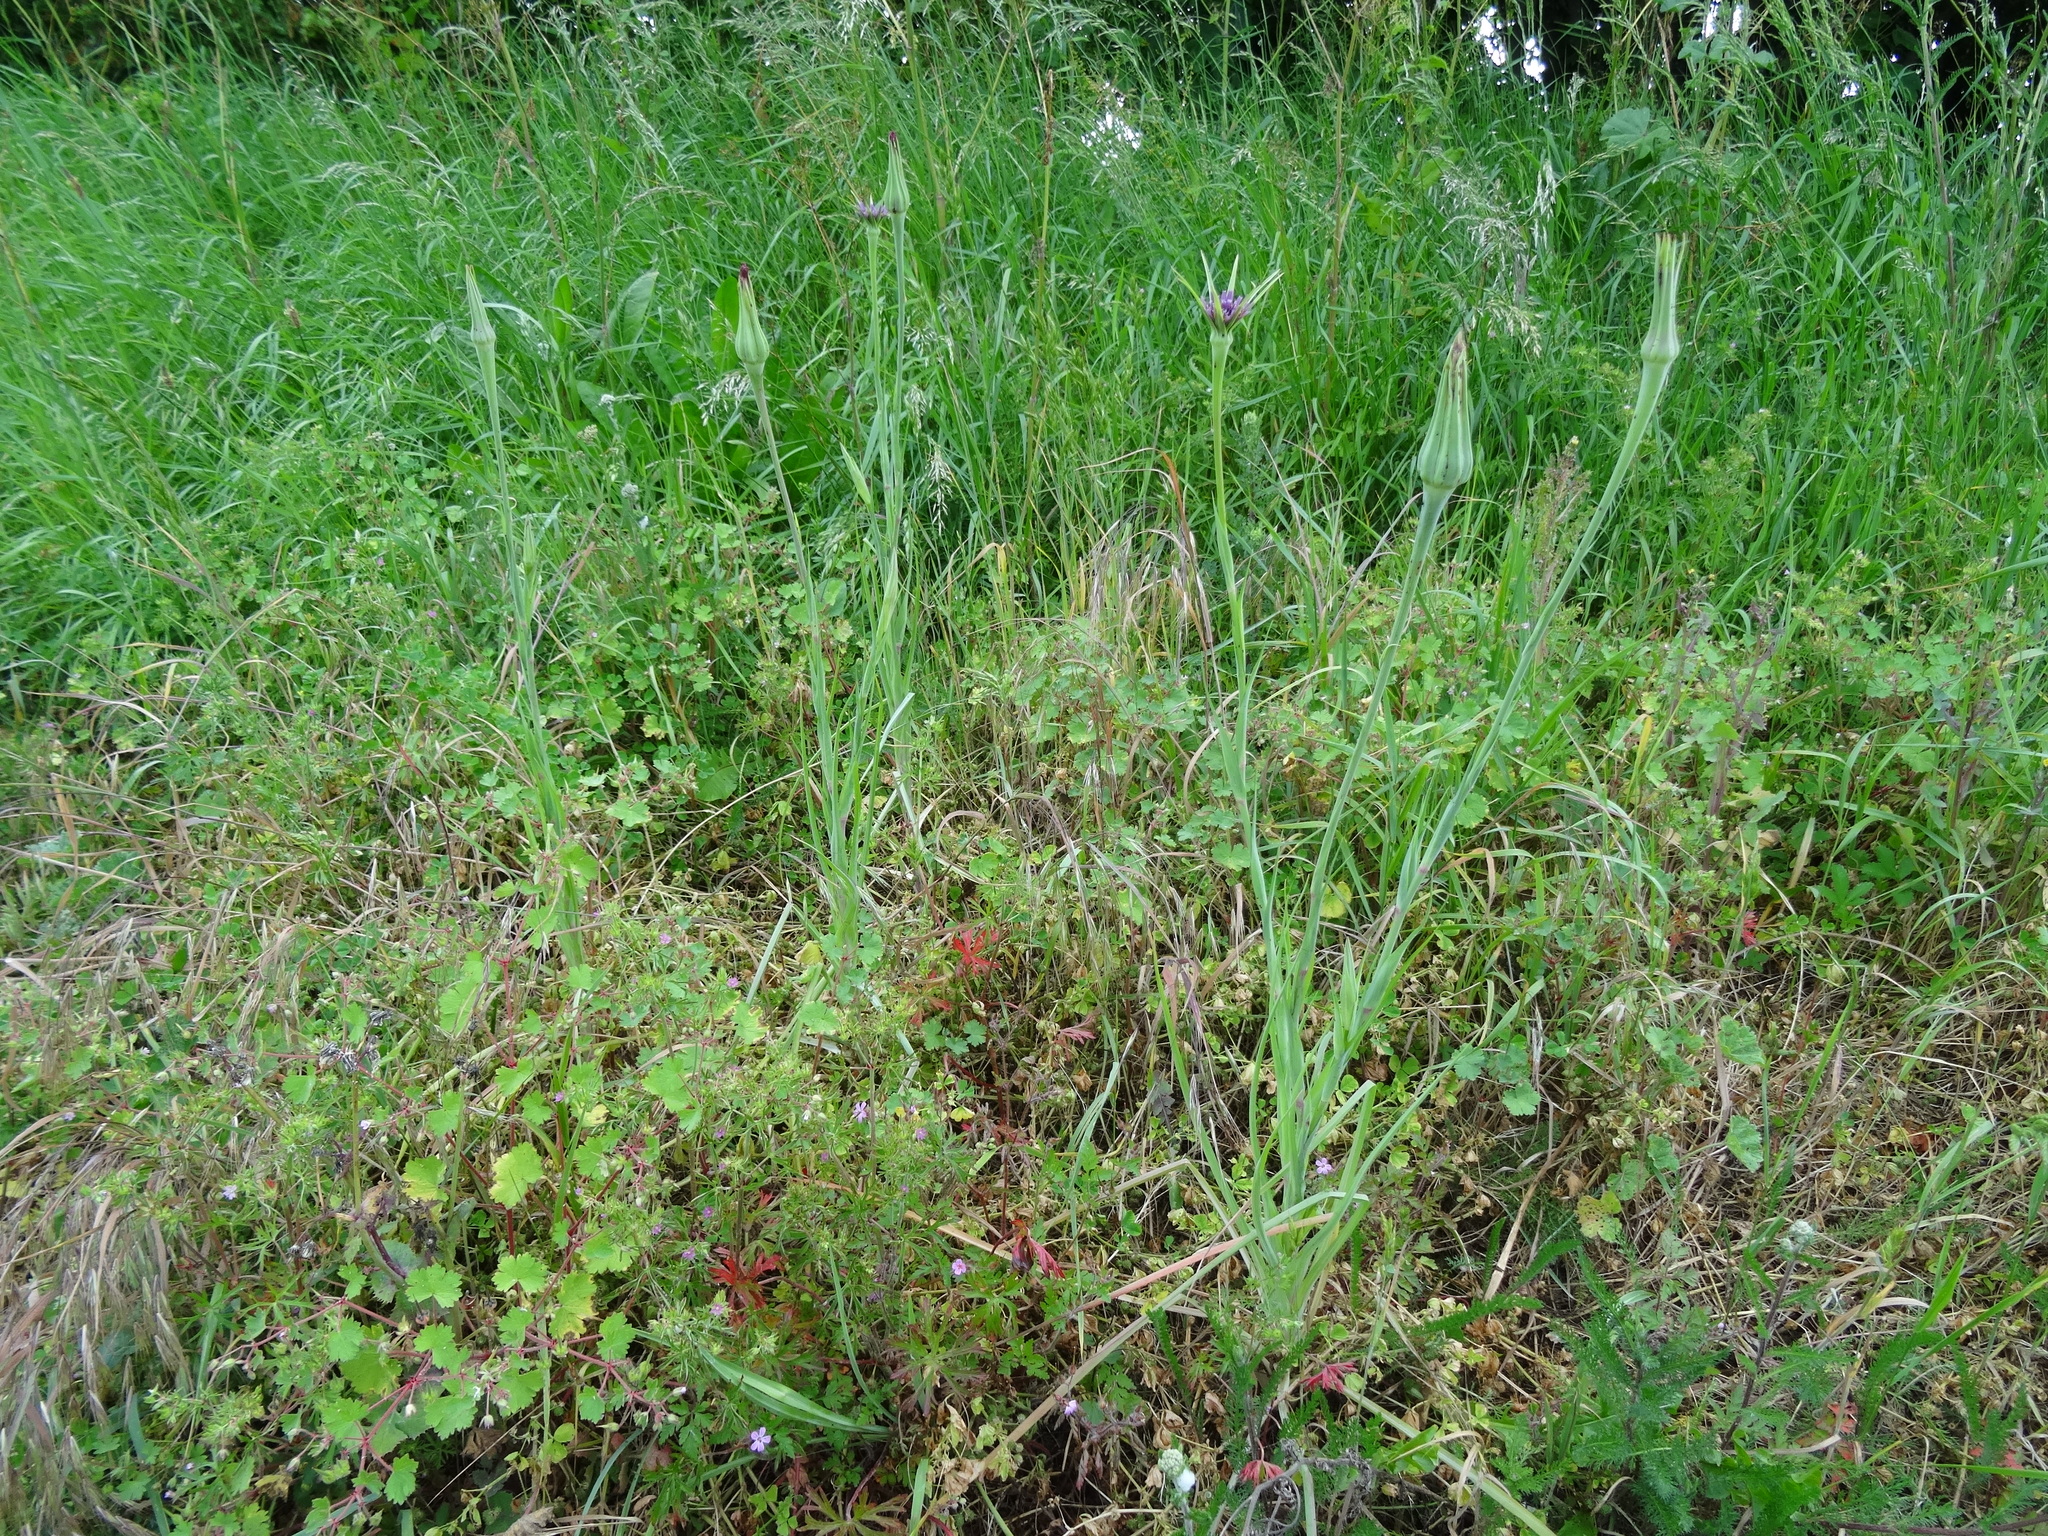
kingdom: Plantae
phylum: Tracheophyta
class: Magnoliopsida
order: Asterales
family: Asteraceae
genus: Tragopogon
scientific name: Tragopogon porrifolius
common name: Salsify
